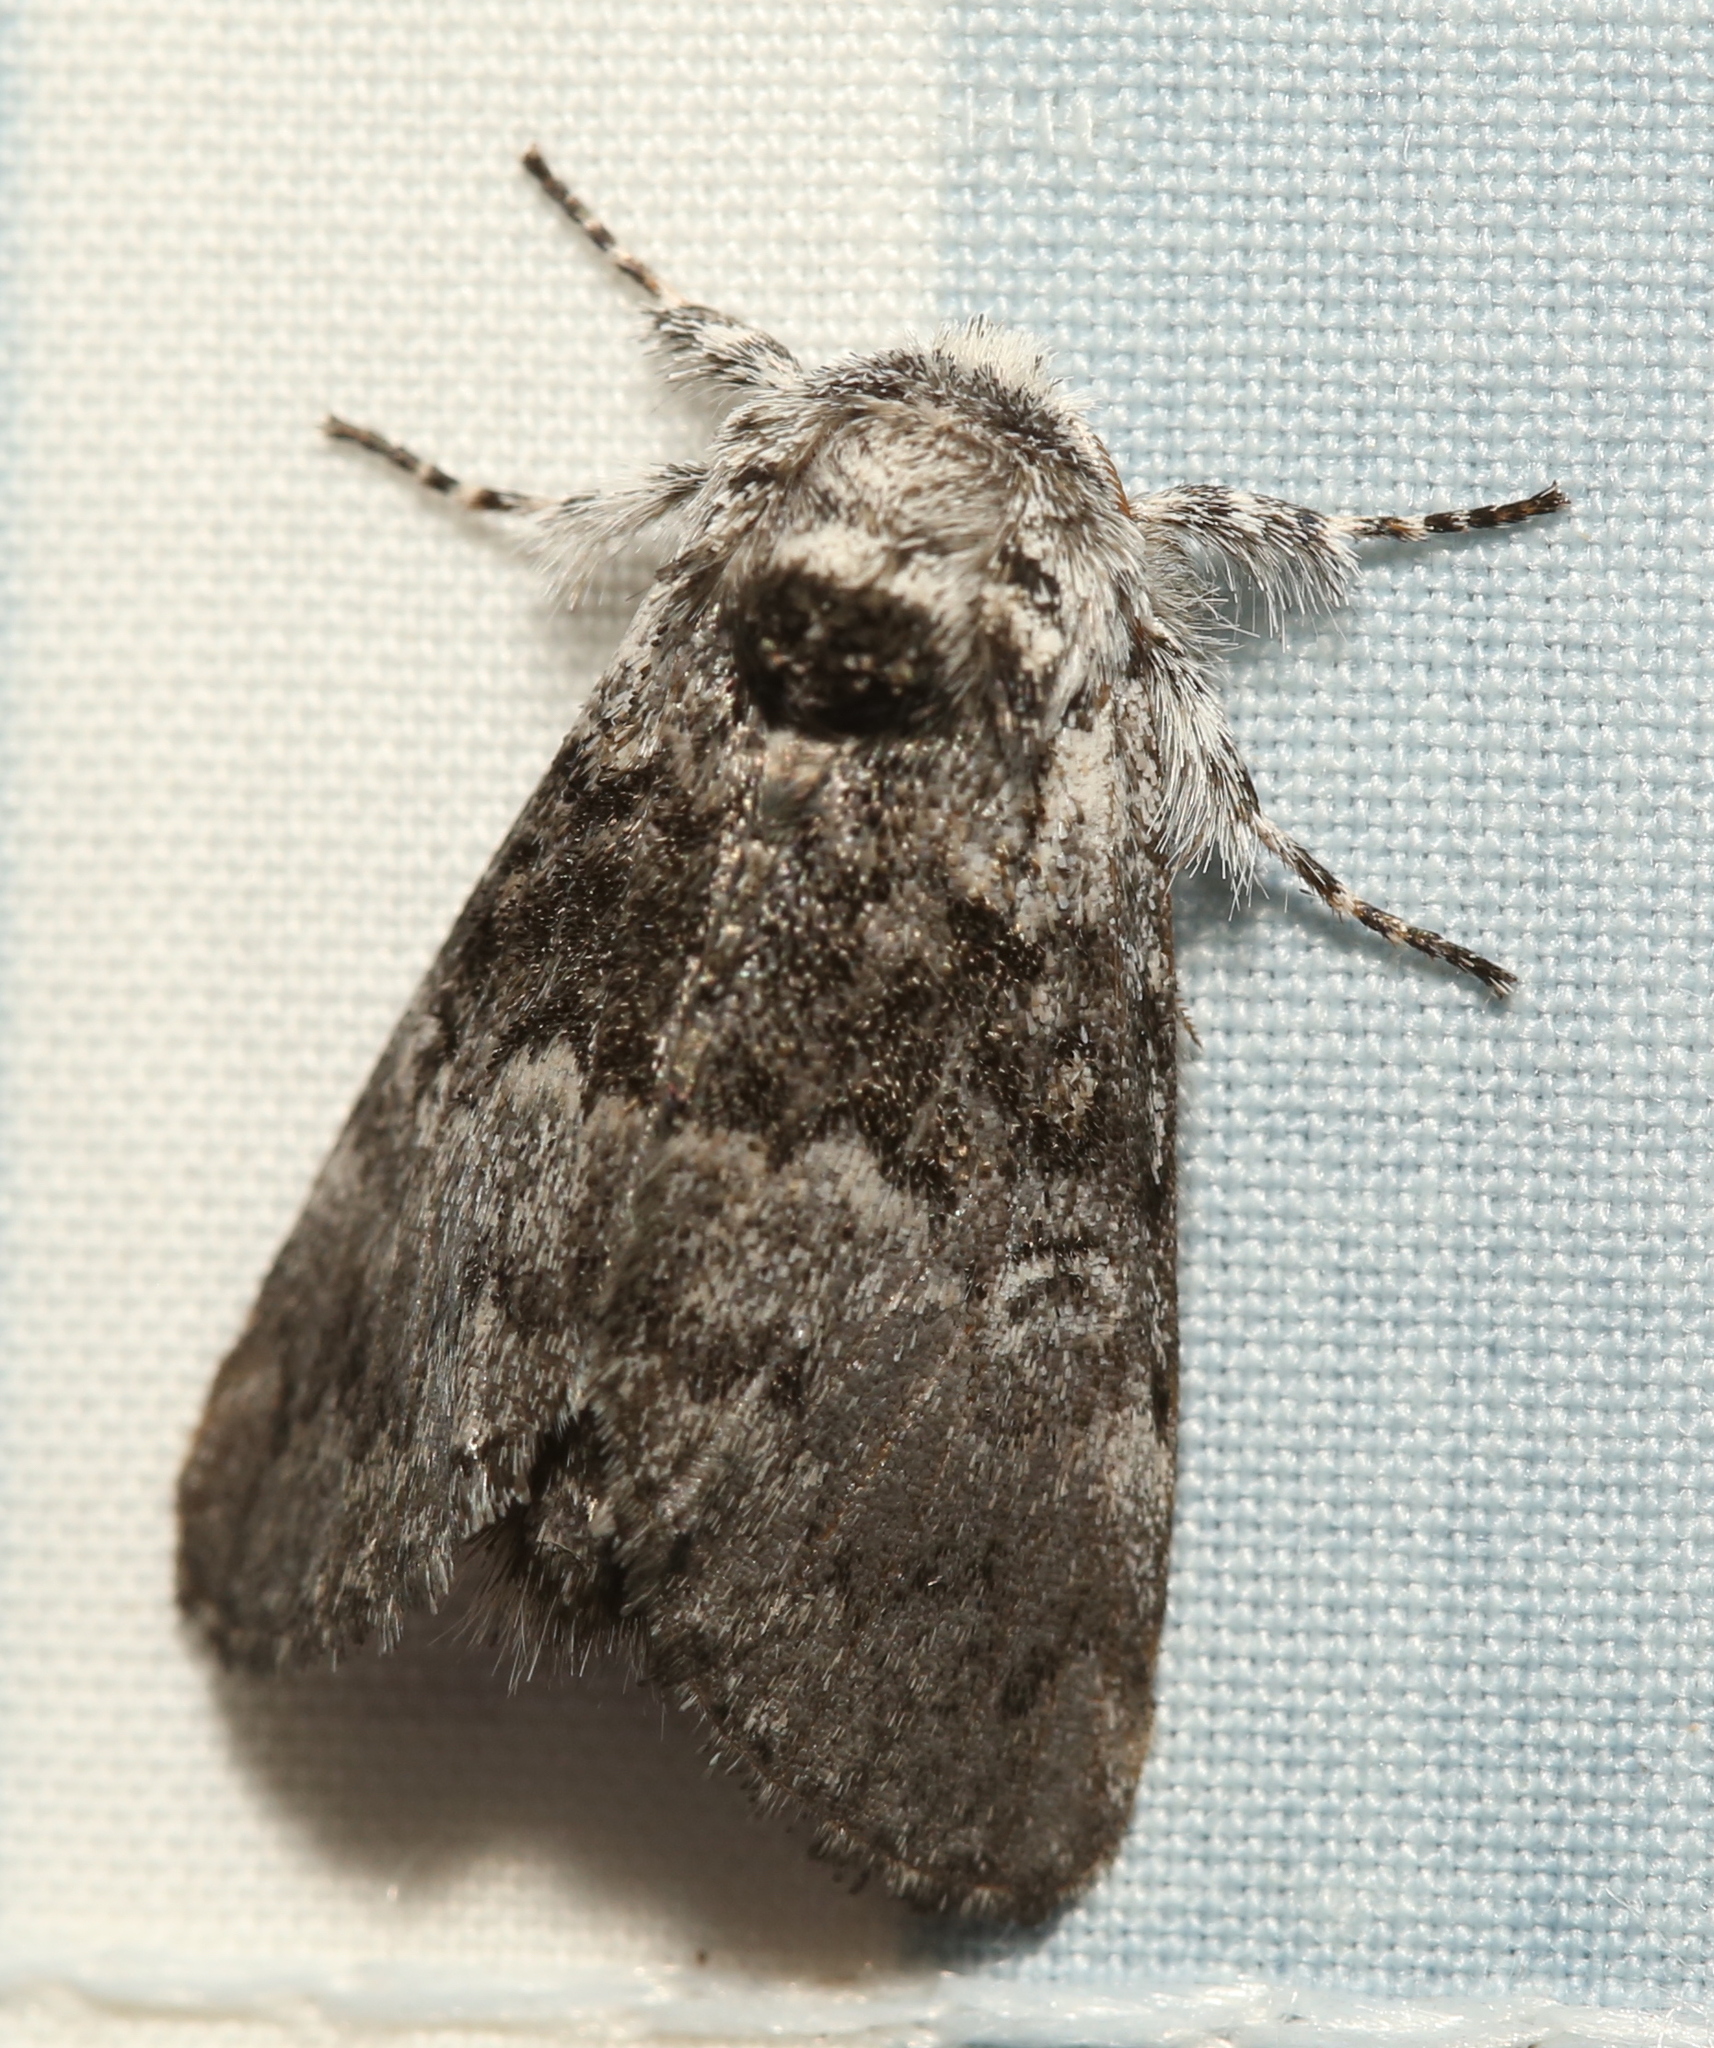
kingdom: Animalia
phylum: Arthropoda
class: Insecta
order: Lepidoptera
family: Noctuidae
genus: Colocasia
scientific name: Colocasia propinquilinea
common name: Close-banded demas
